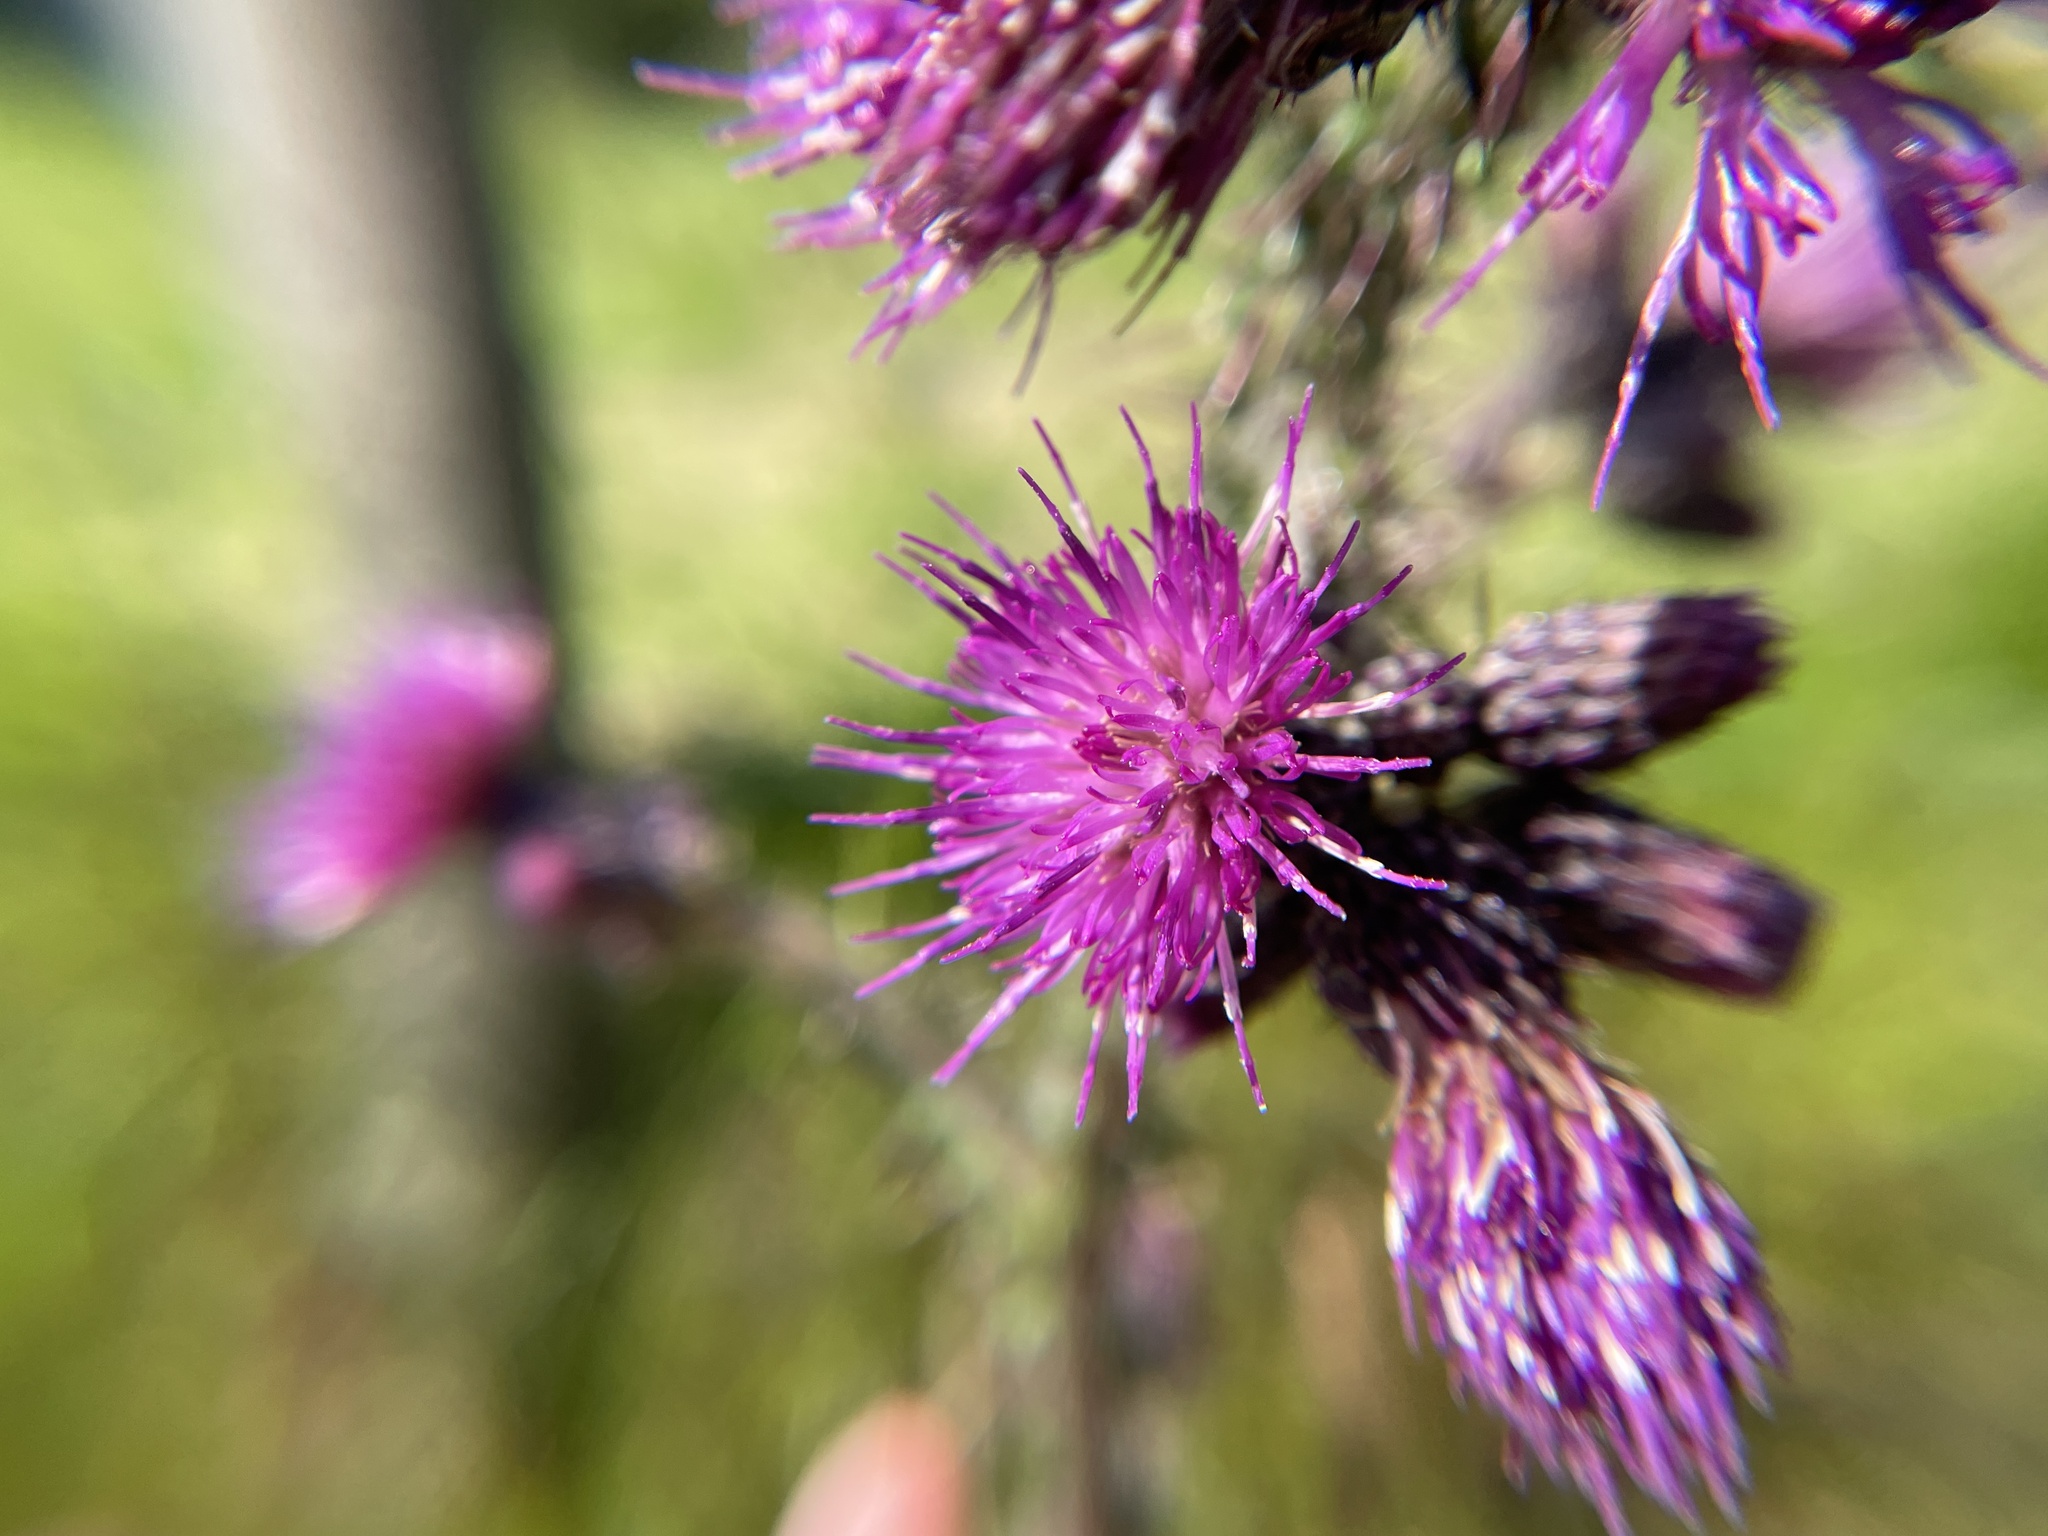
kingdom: Plantae
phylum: Tracheophyta
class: Magnoliopsida
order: Asterales
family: Asteraceae
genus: Cirsium
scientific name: Cirsium palustre
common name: Marsh thistle
